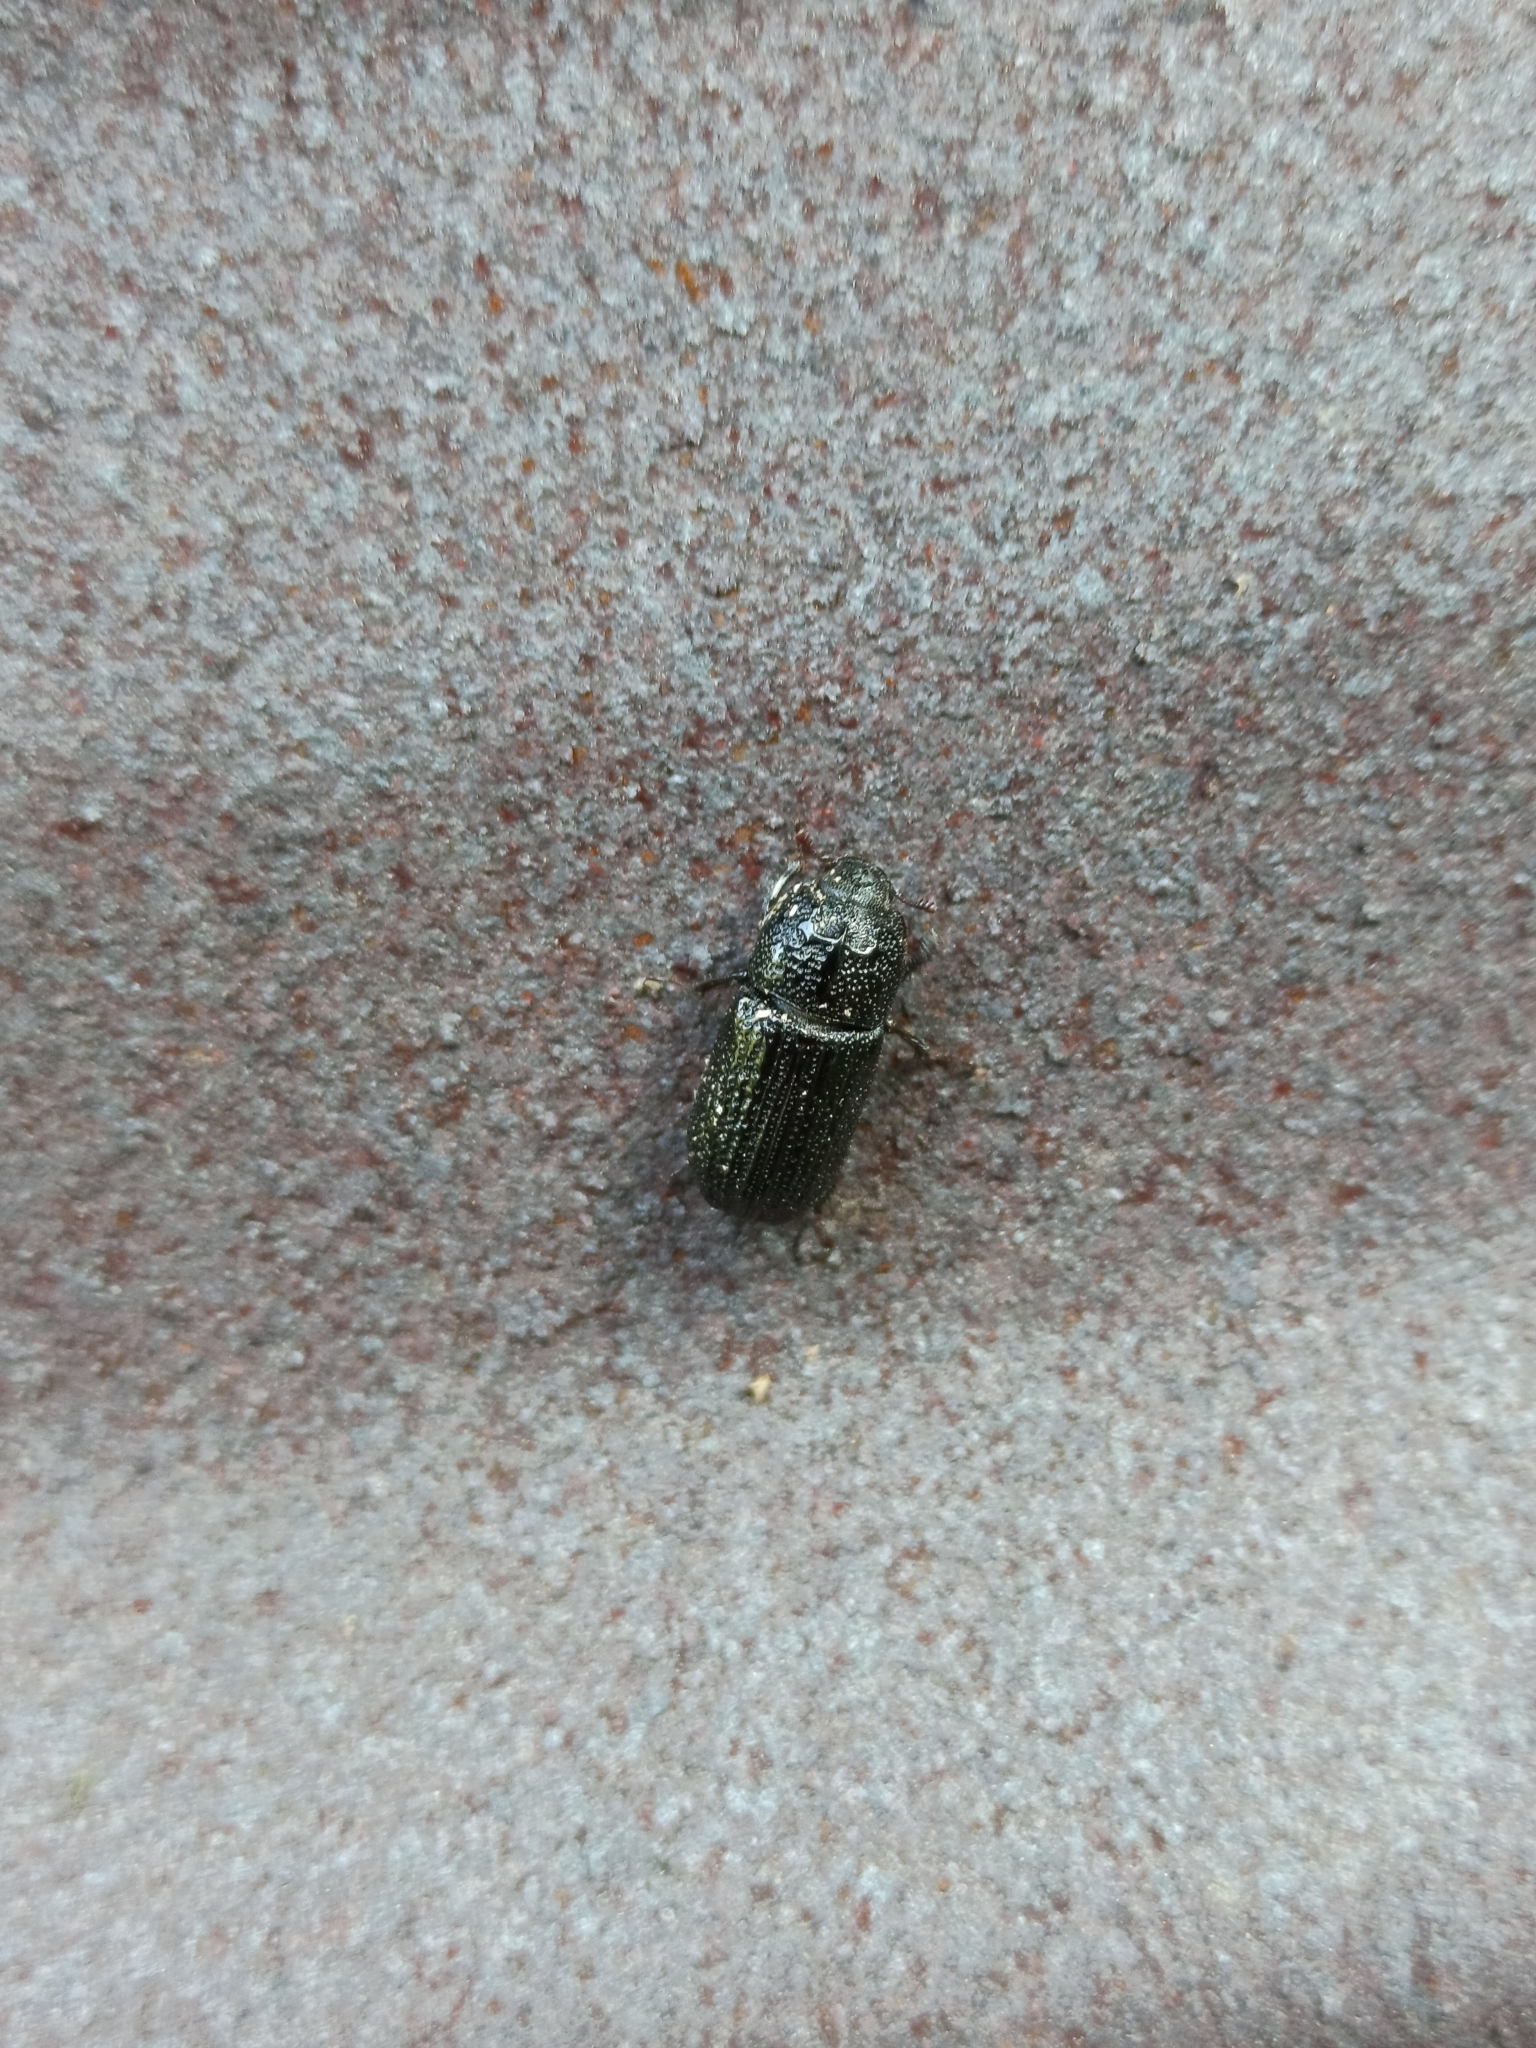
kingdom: Animalia
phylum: Arthropoda
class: Insecta
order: Coleoptera
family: Lucanidae
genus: Sinodendron
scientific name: Sinodendron cylindricum
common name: Rhinoceros beetle
